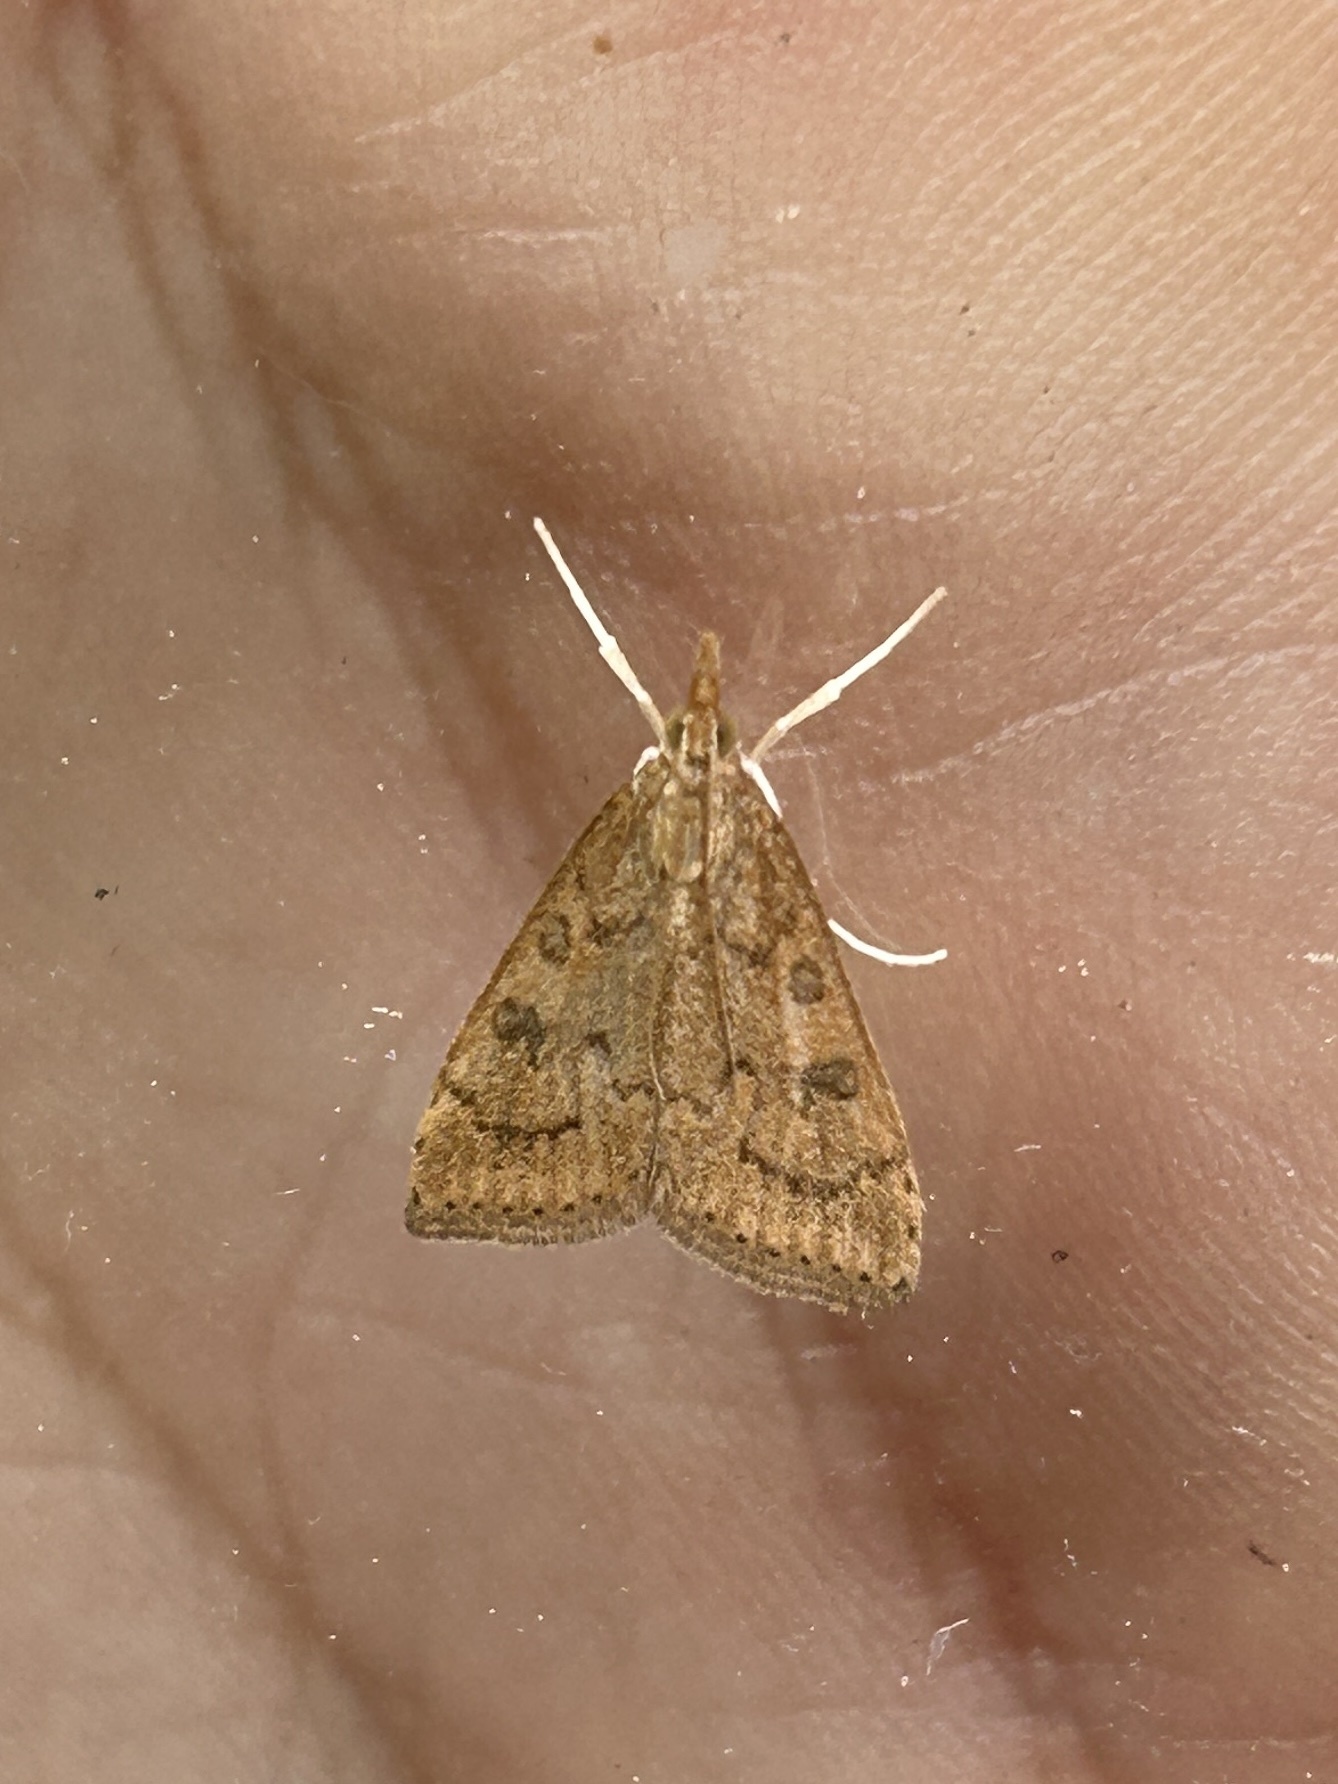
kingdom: Animalia
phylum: Arthropoda
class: Insecta
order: Lepidoptera
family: Crambidae
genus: Udea
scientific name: Udea rubigalis
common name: Celery leaftier moth
